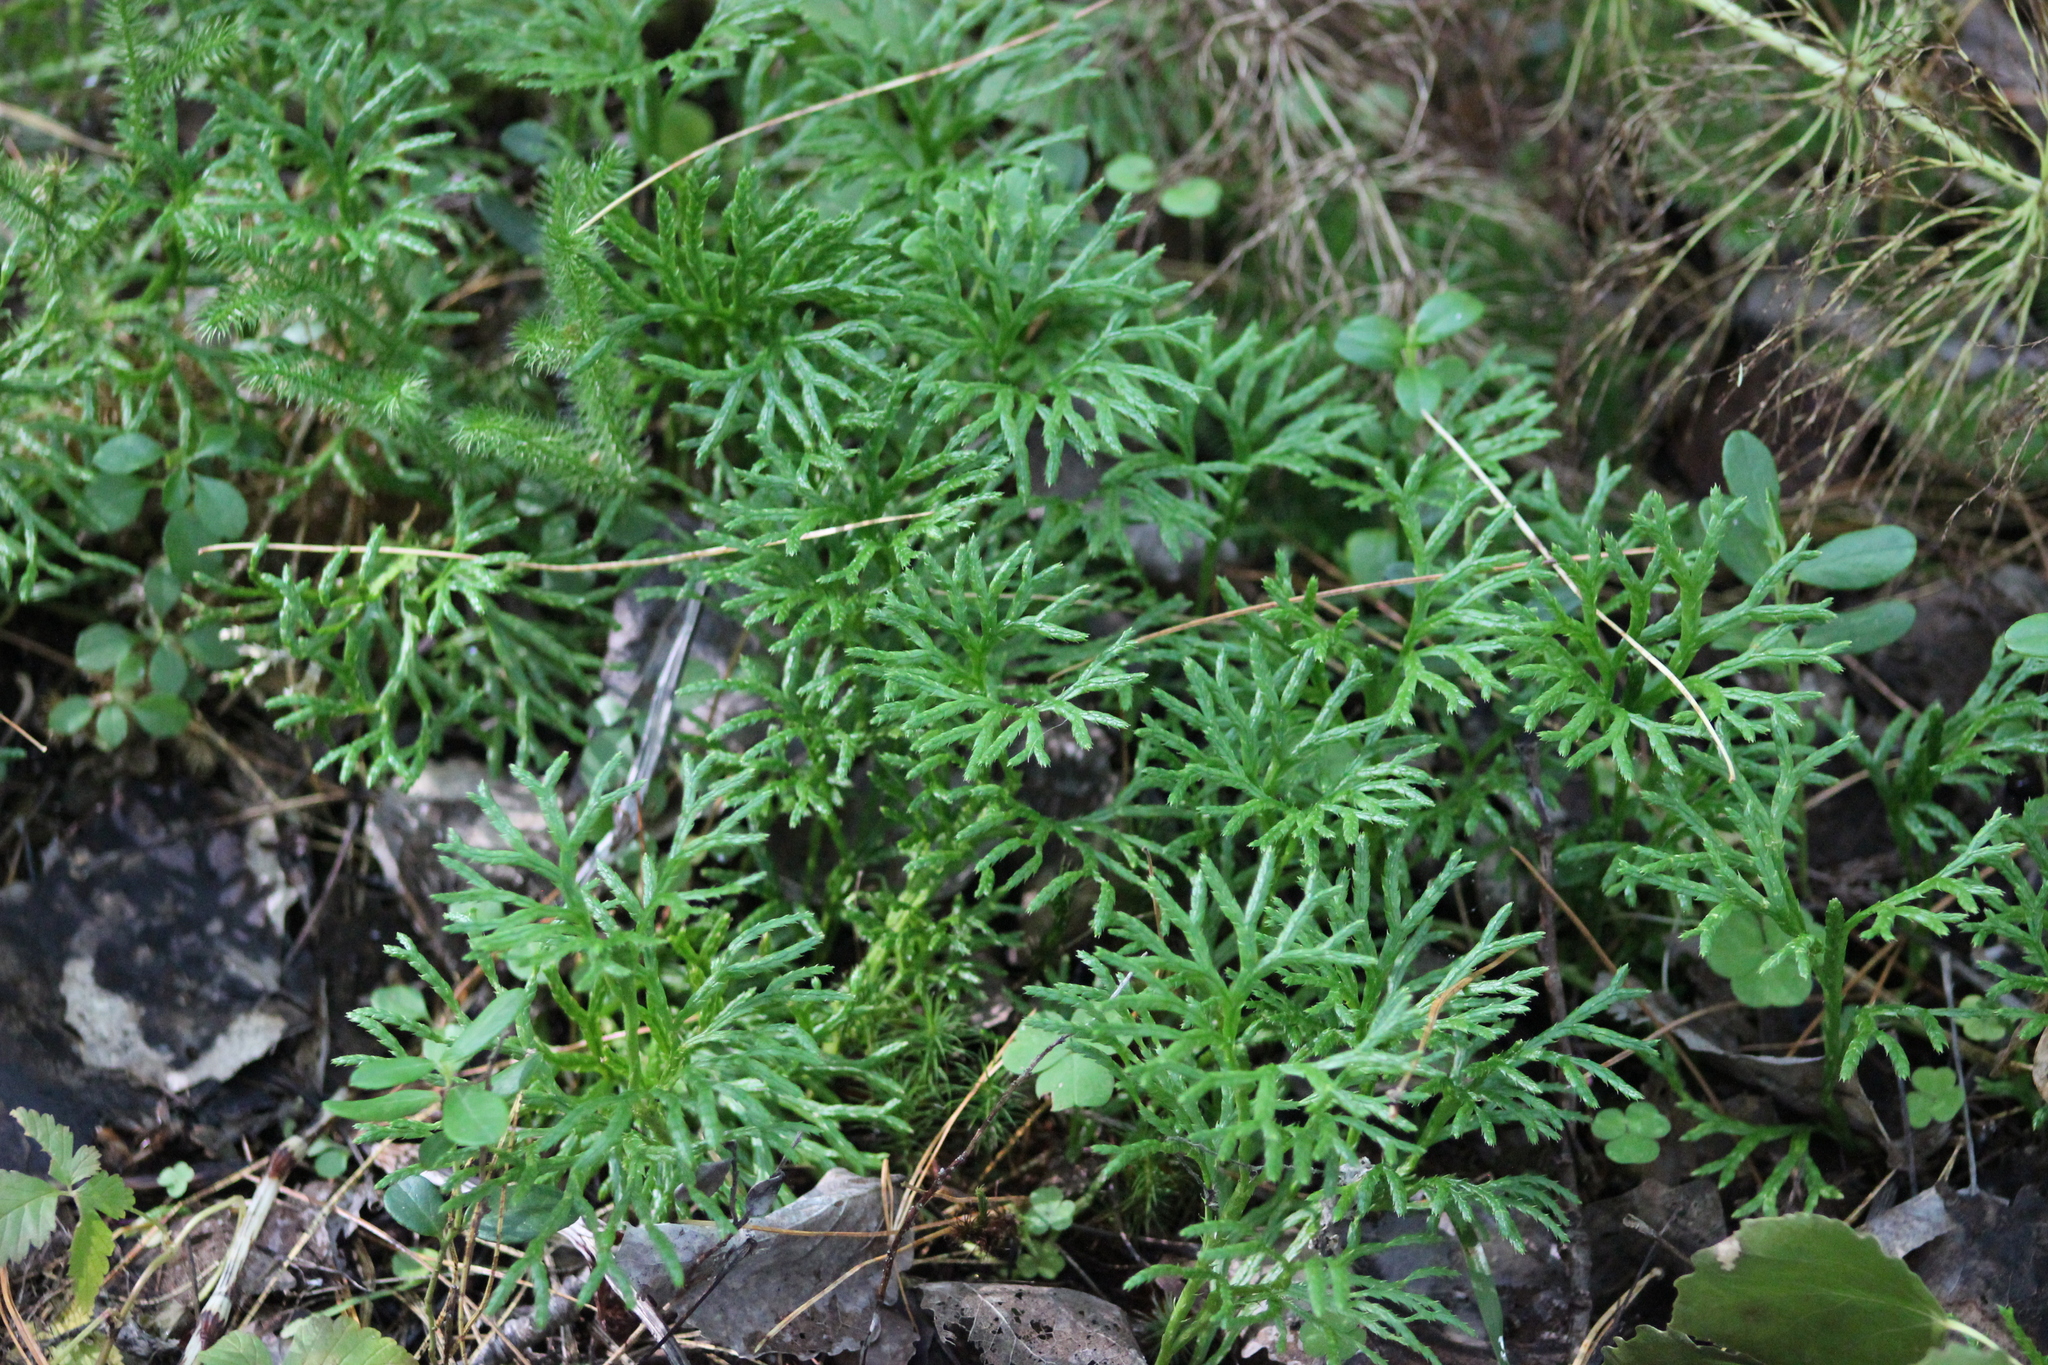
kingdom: Plantae
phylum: Tracheophyta
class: Lycopodiopsida
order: Lycopodiales
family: Lycopodiaceae
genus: Diphasiastrum
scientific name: Diphasiastrum complanatum
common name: Northern running-pine
